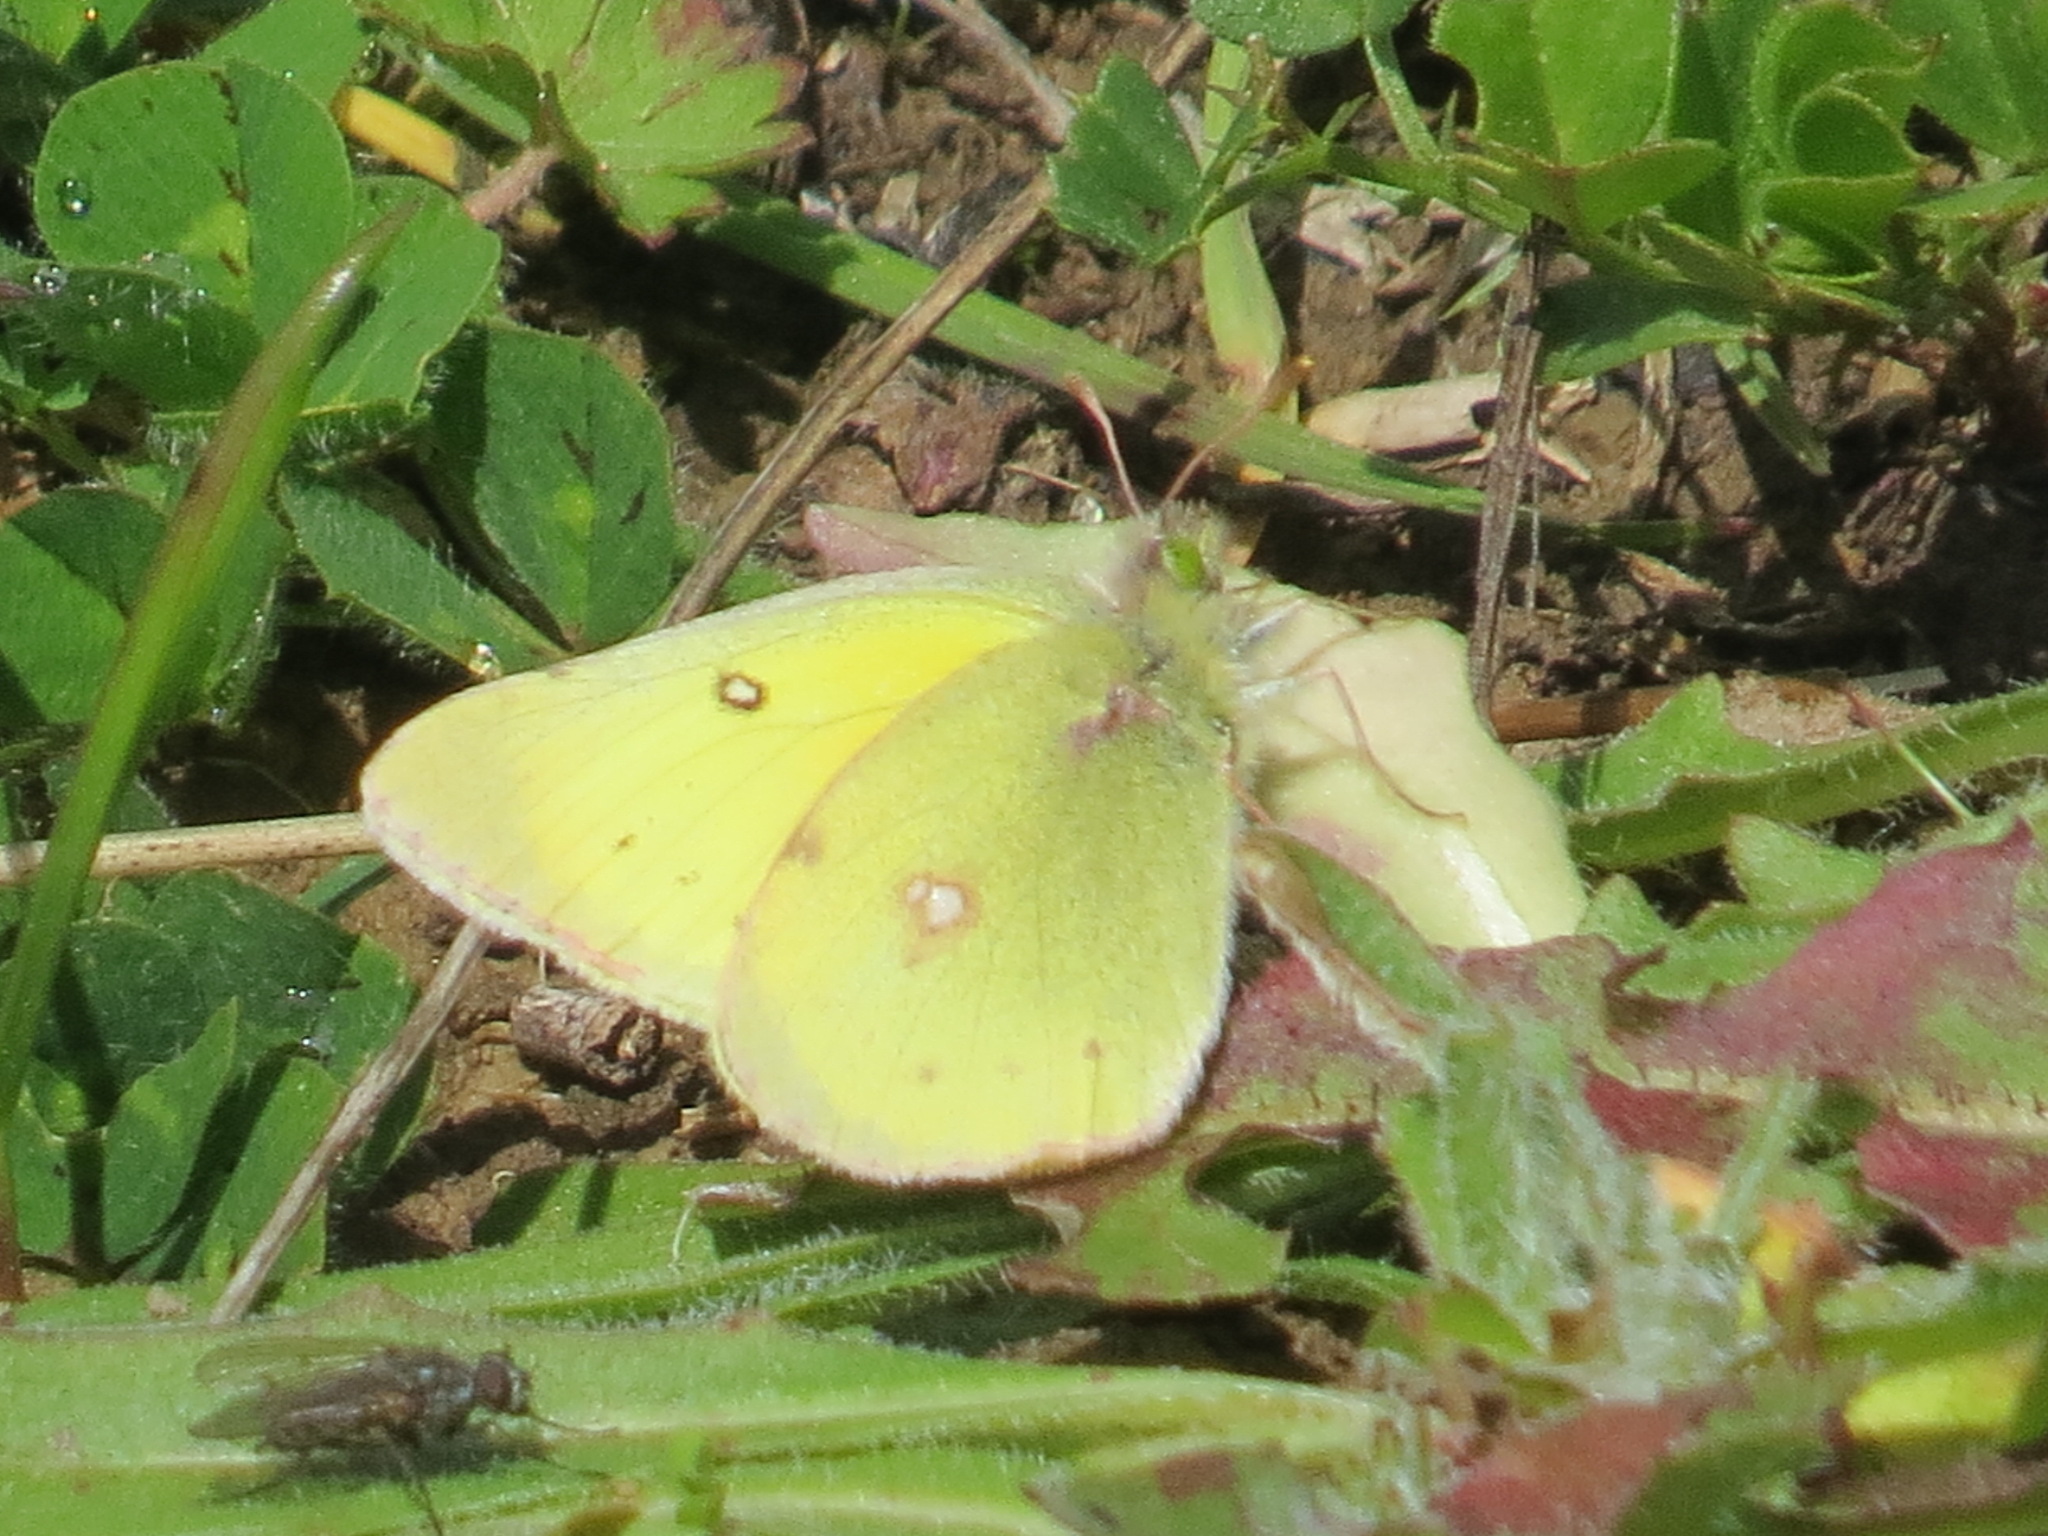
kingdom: Animalia
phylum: Arthropoda
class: Insecta
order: Lepidoptera
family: Pieridae
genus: Colias
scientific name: Colias eurytheme
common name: Alfalfa butterfly
